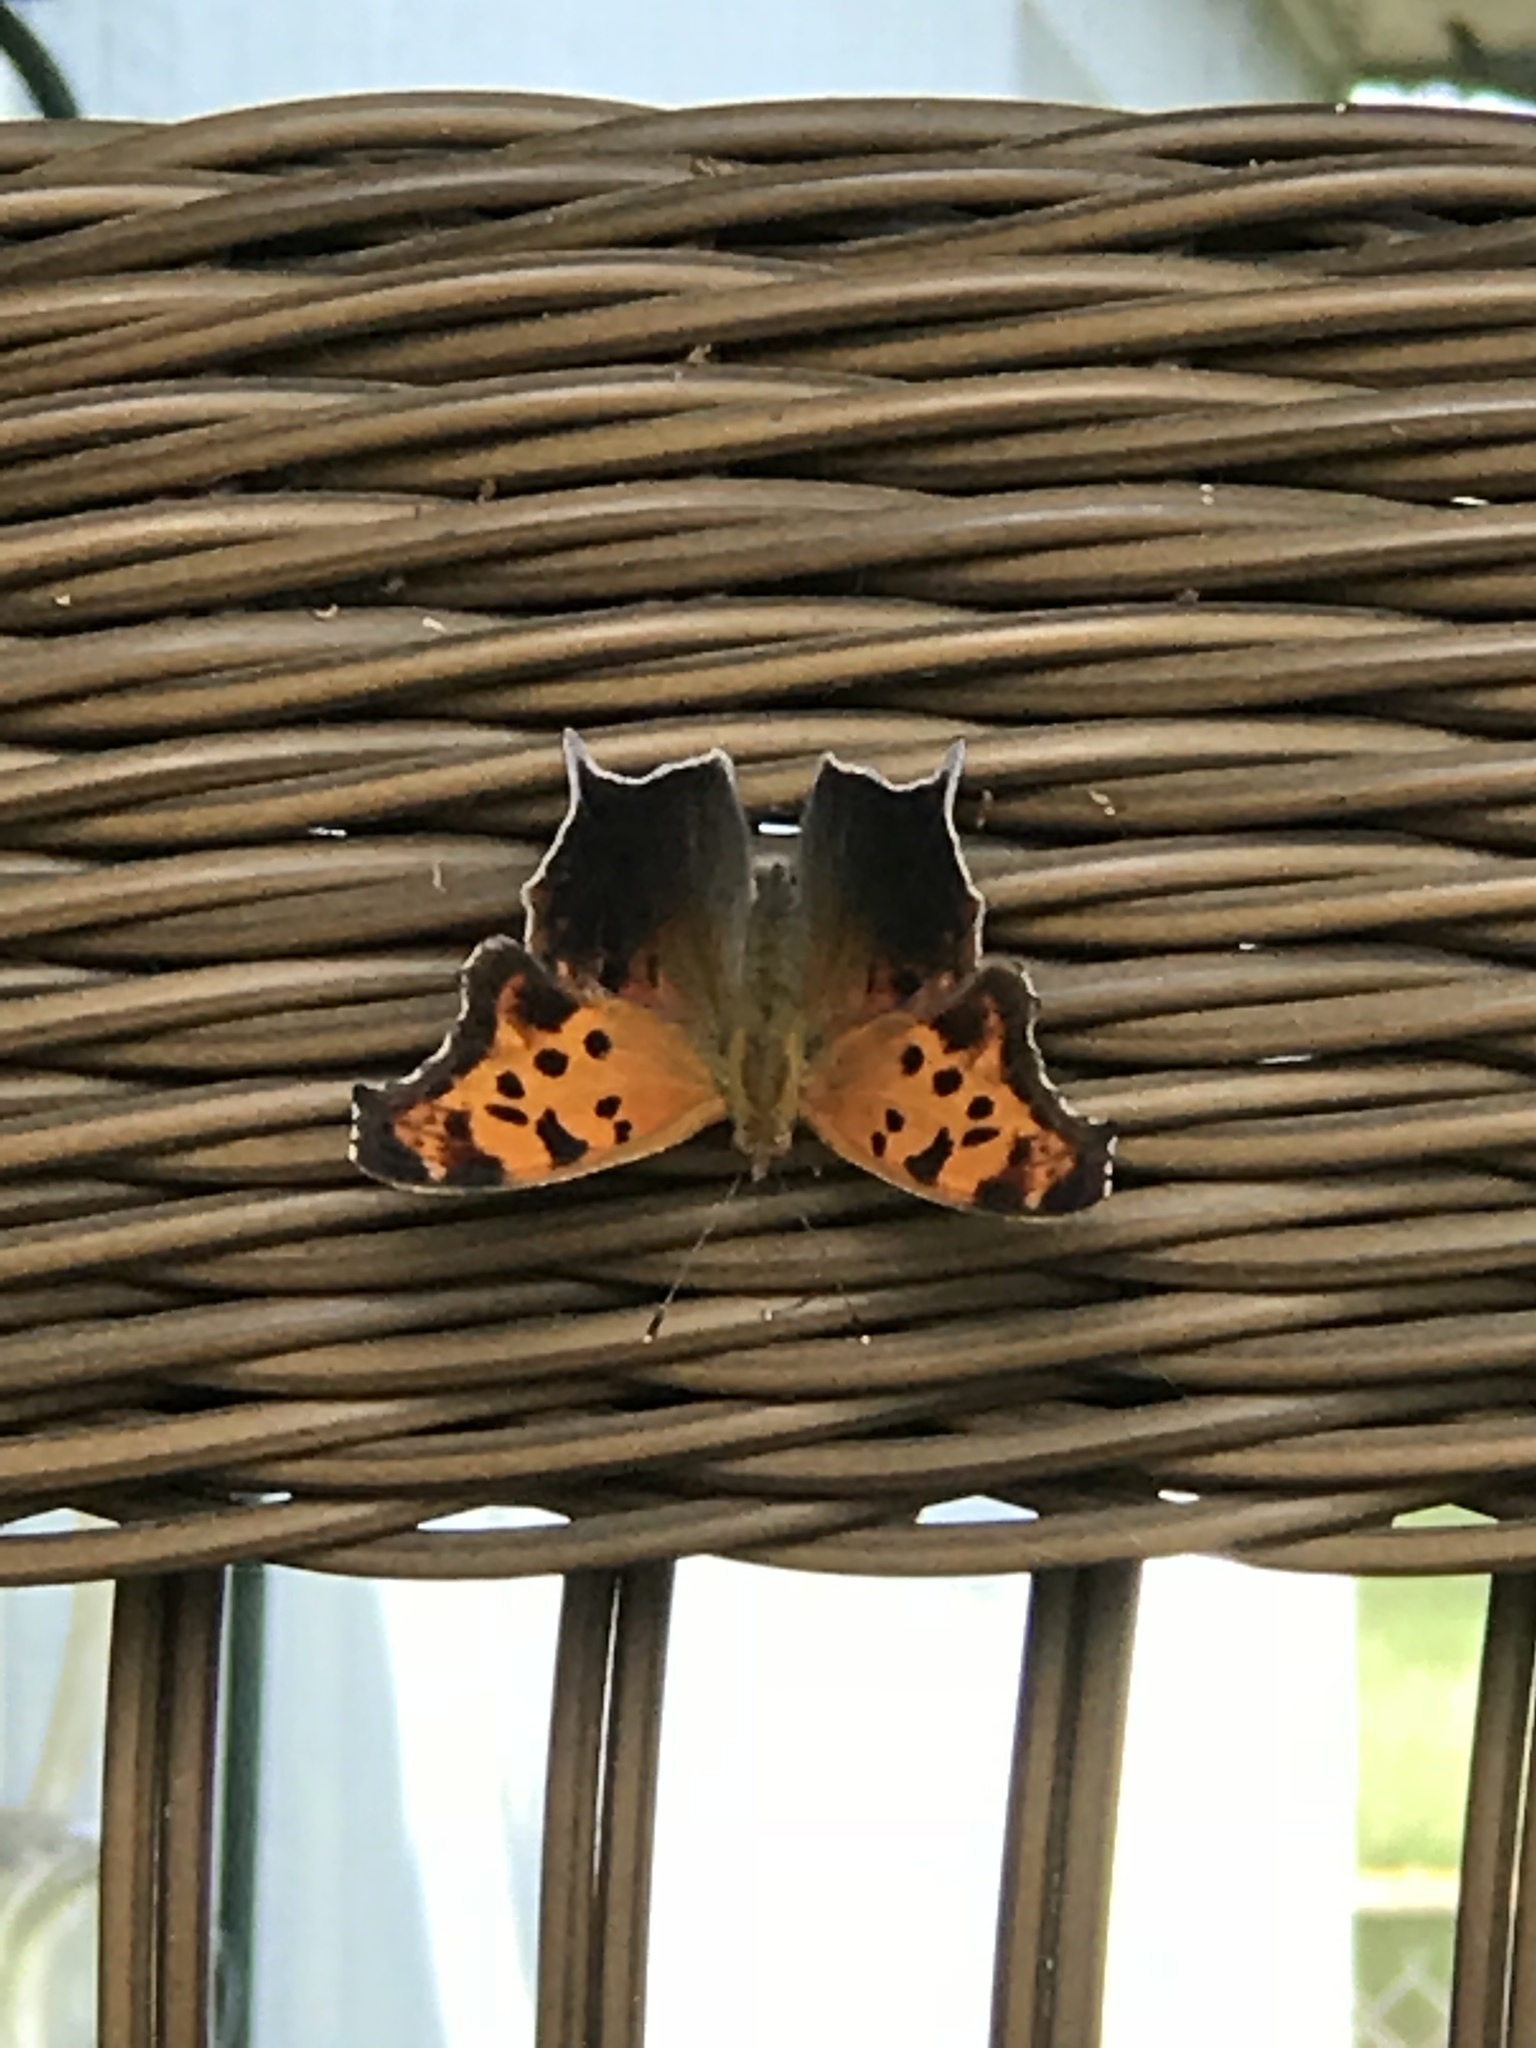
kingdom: Animalia
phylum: Arthropoda
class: Insecta
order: Lepidoptera
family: Nymphalidae
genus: Polygonia
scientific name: Polygonia interrogationis
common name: Question mark
